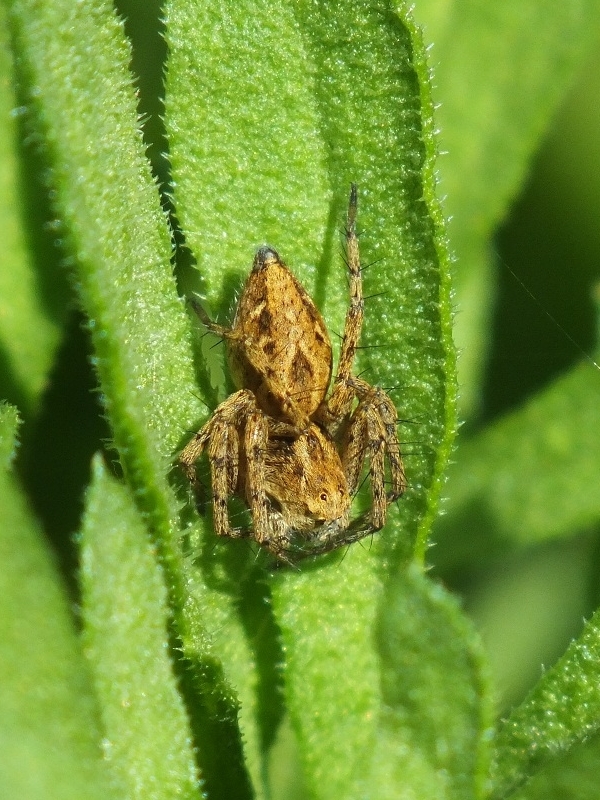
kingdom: Animalia
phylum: Arthropoda
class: Arachnida
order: Araneae
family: Oxyopidae
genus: Oxyopes
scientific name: Oxyopes heterophthalmus
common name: Lynx spider
